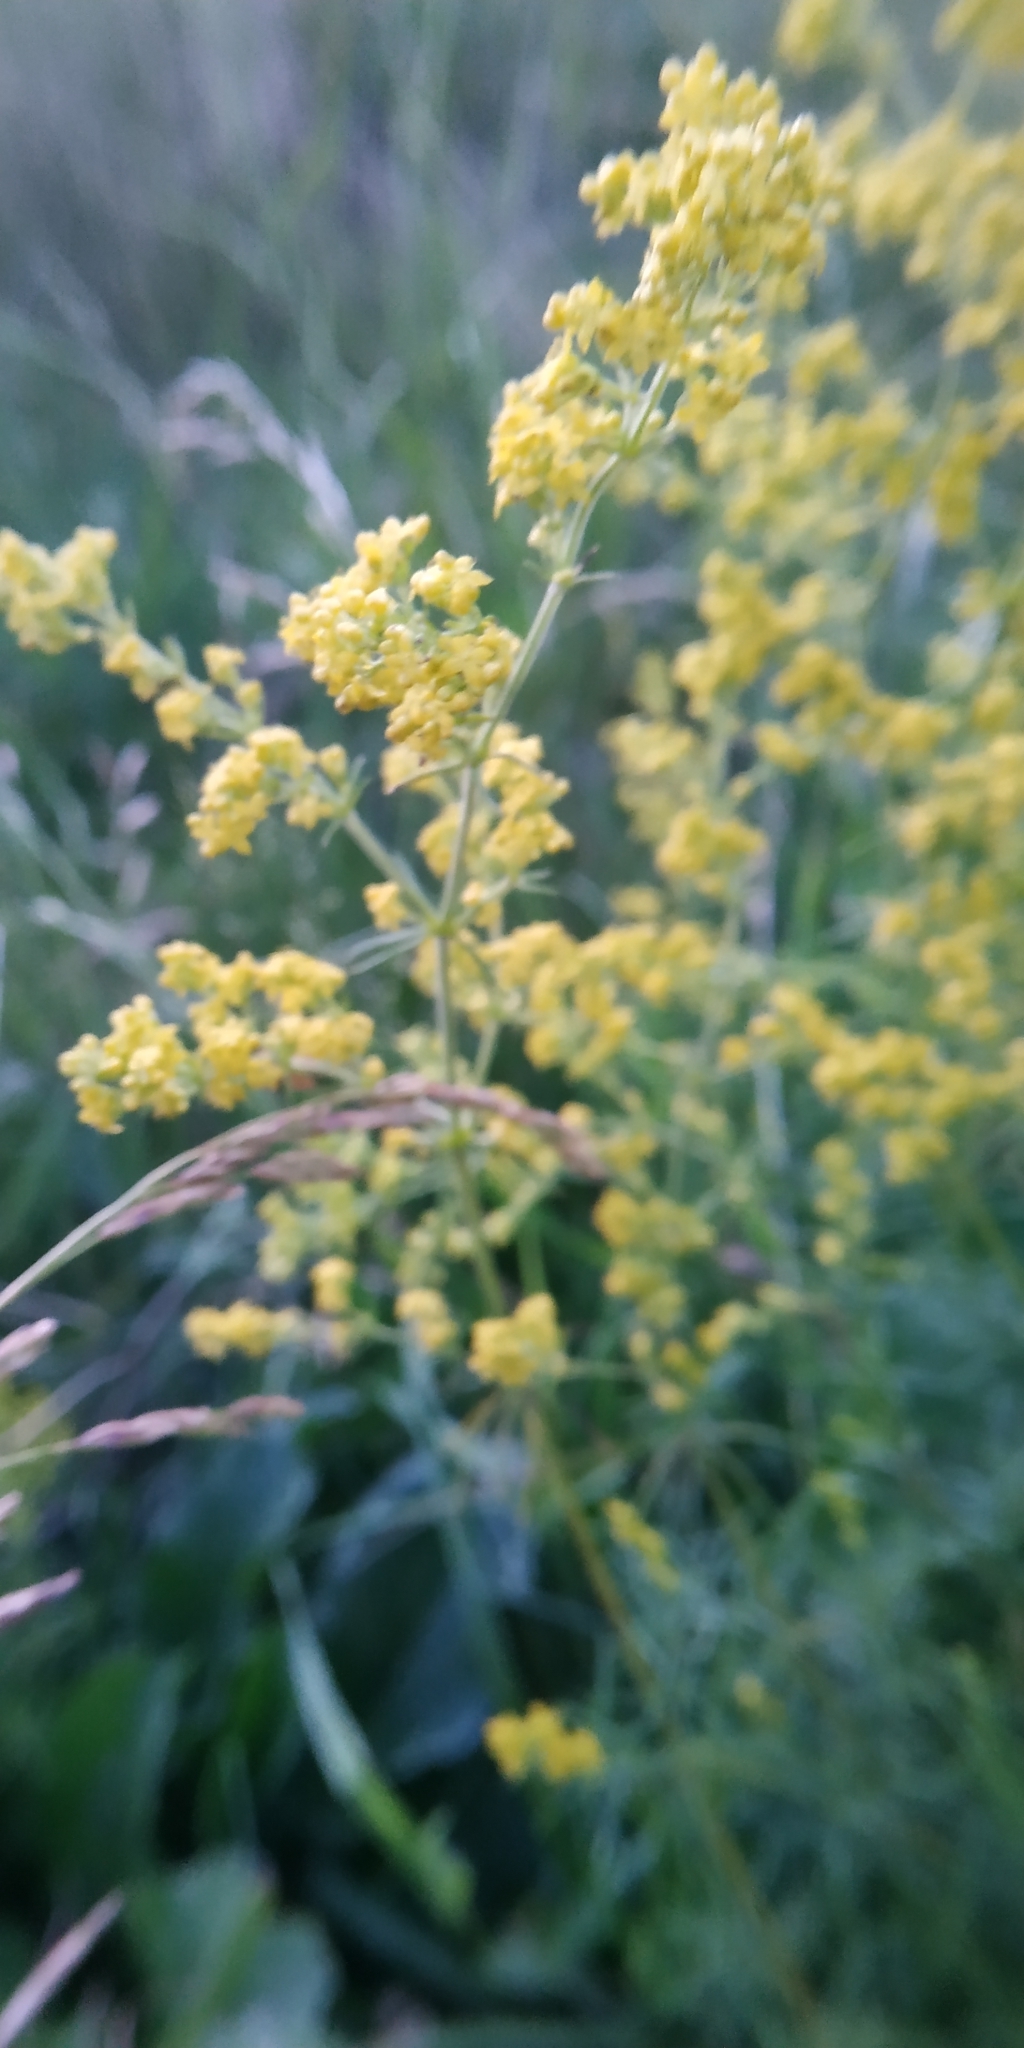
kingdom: Plantae
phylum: Tracheophyta
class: Magnoliopsida
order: Gentianales
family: Rubiaceae
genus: Galium
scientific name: Galium verum
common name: Lady's bedstraw
